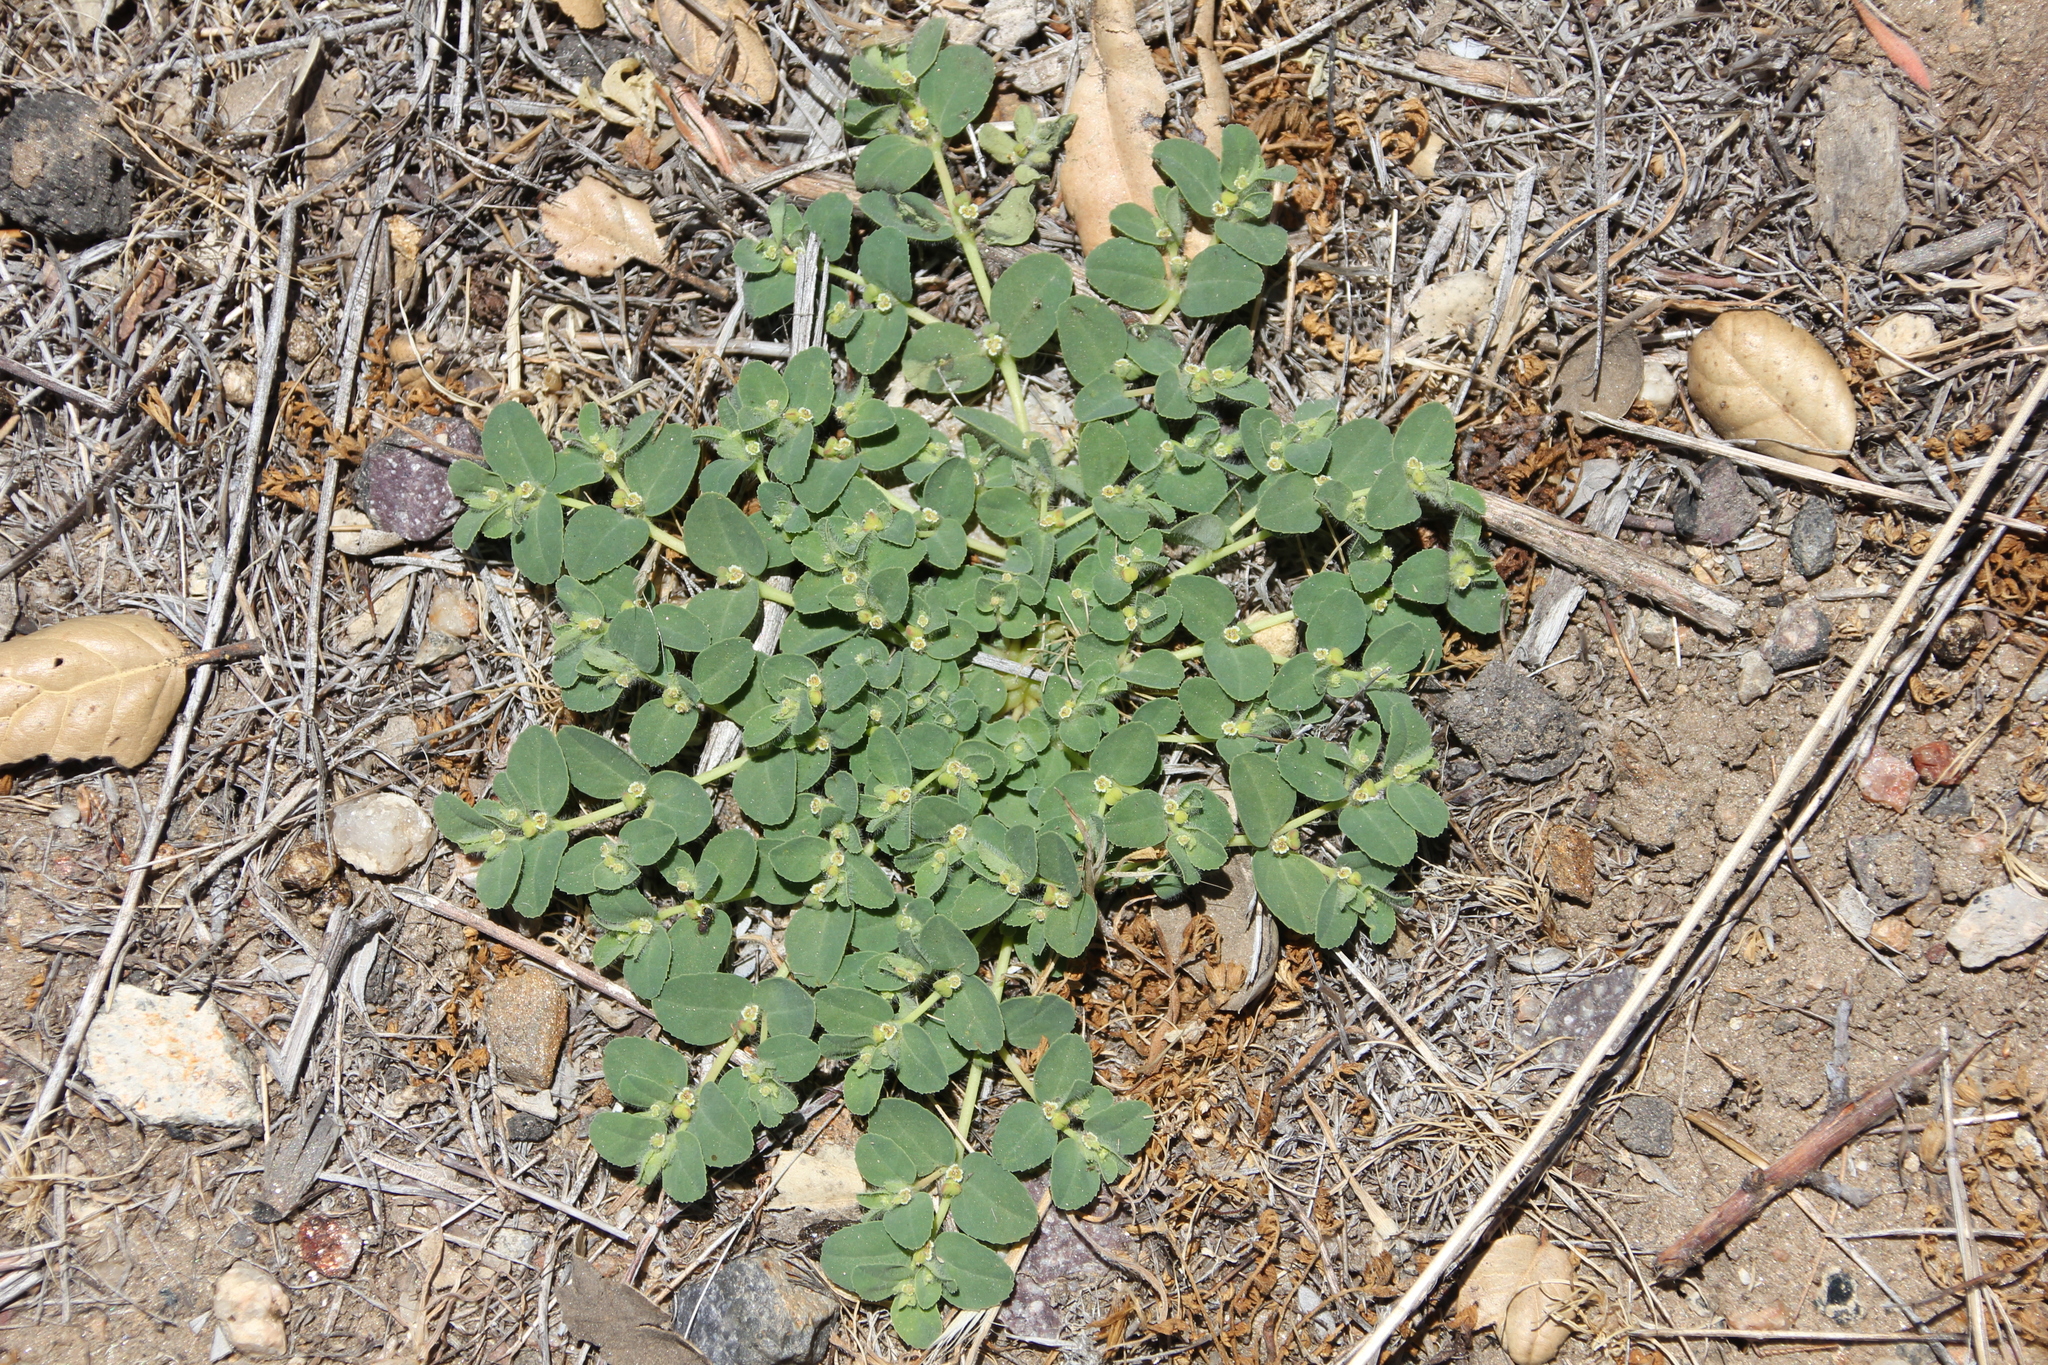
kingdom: Plantae
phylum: Tracheophyta
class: Magnoliopsida
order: Malpighiales
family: Euphorbiaceae
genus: Euphorbia
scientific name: Euphorbia serpillifolia
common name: Thyme-leaf spurge
